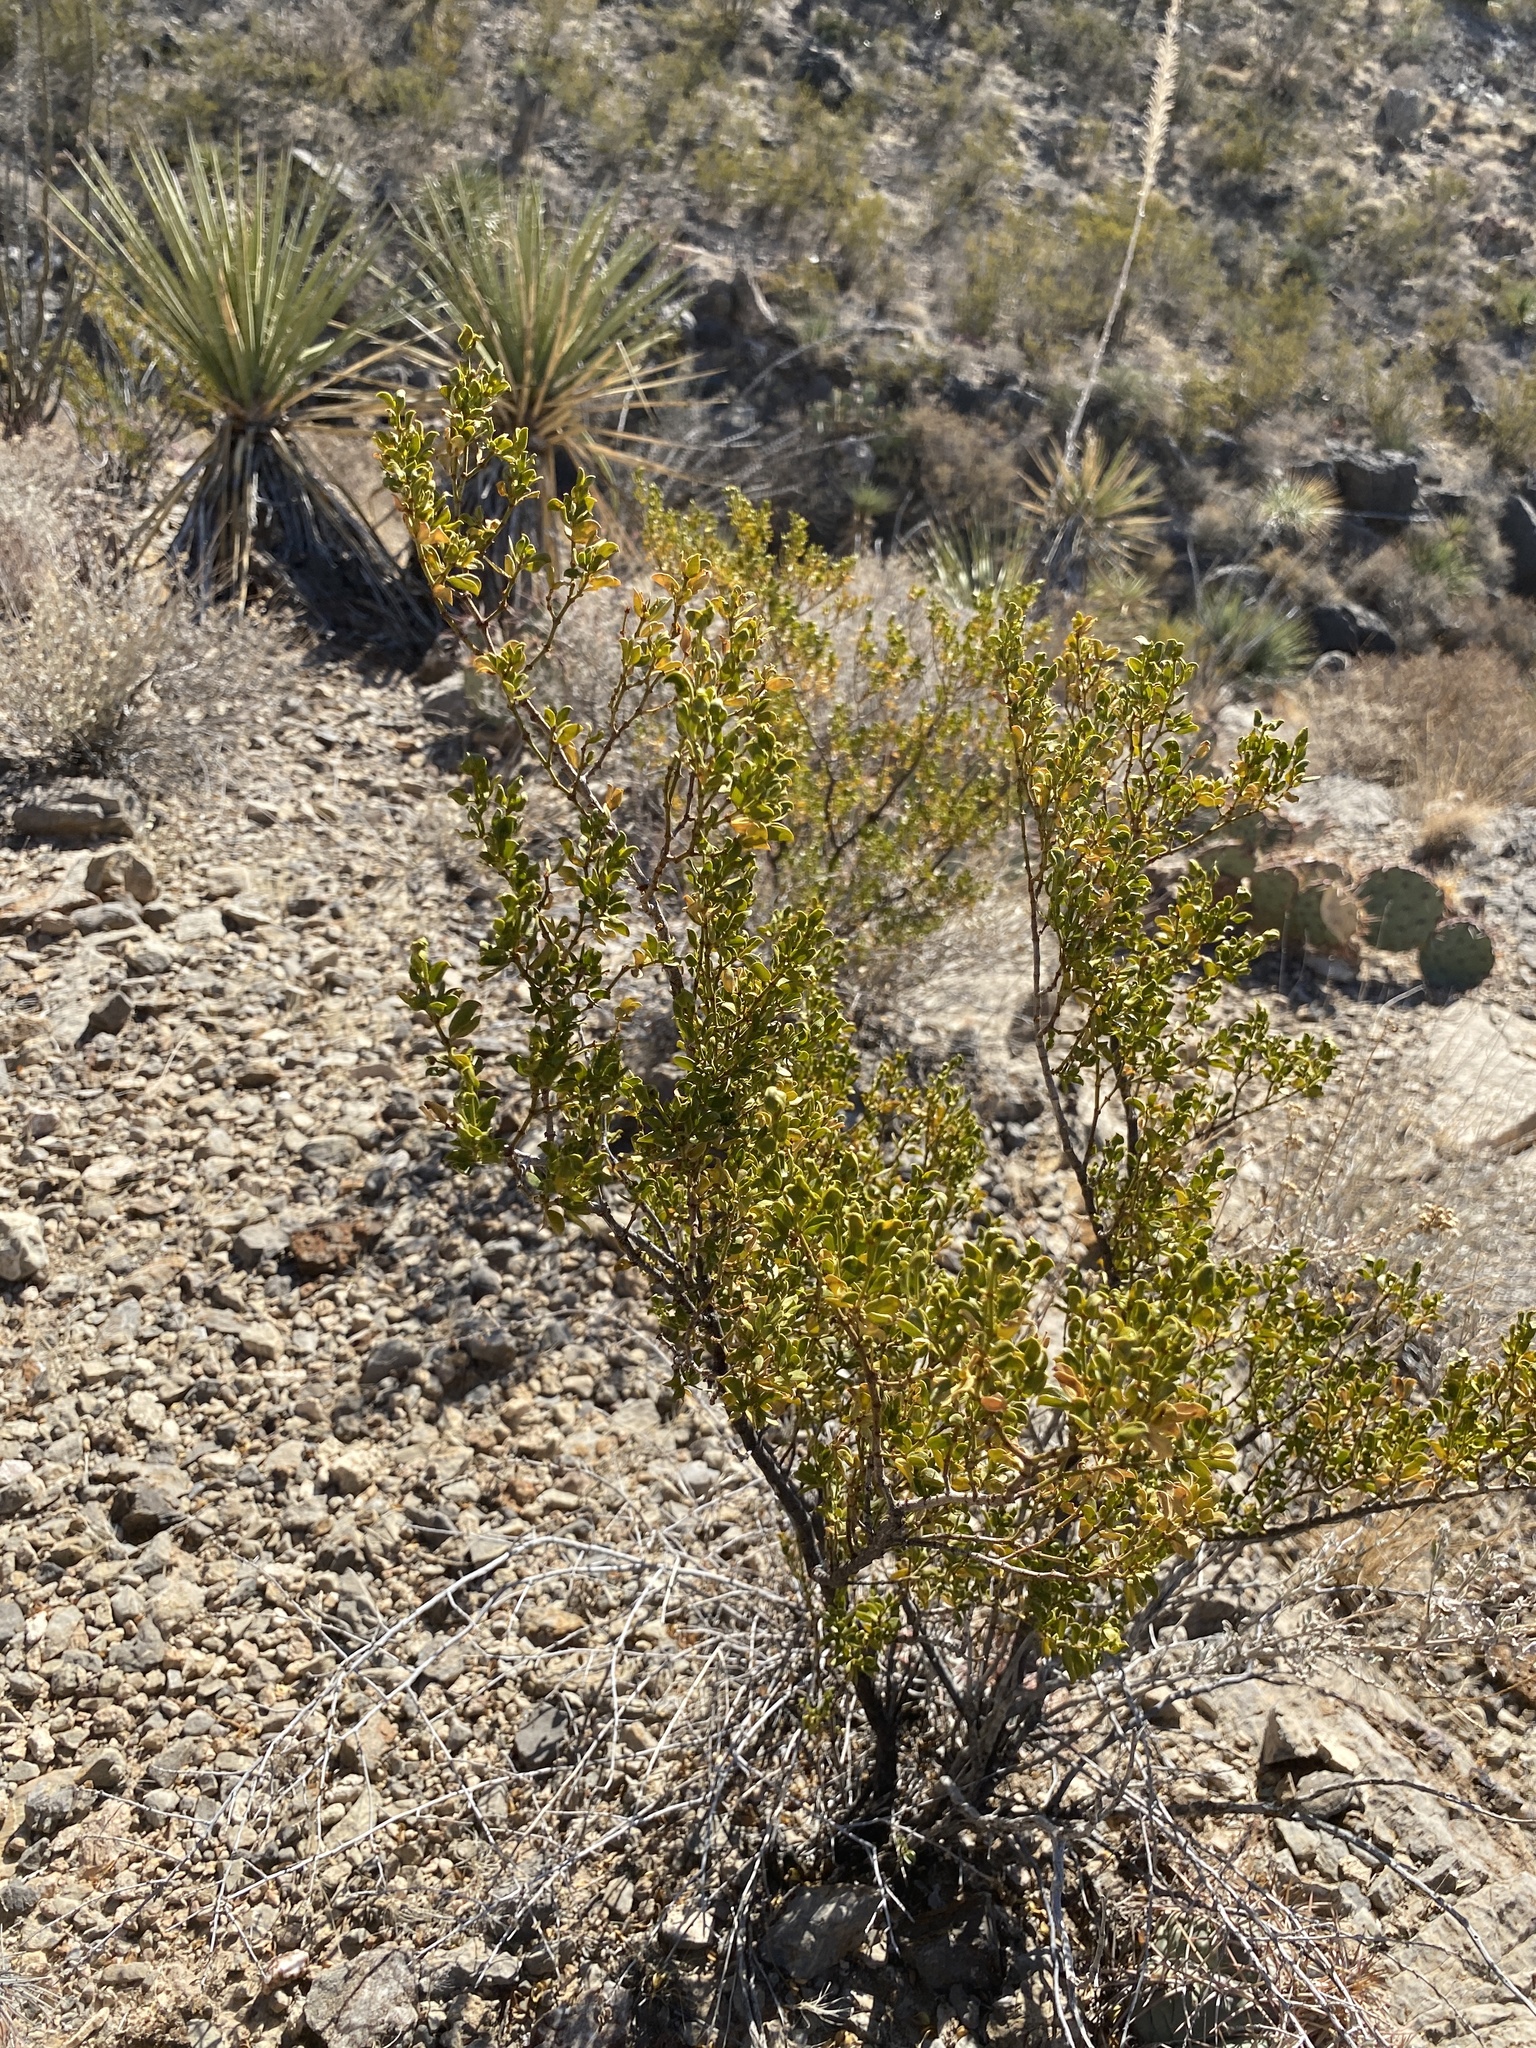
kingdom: Plantae
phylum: Tracheophyta
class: Magnoliopsida
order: Zygophyllales
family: Zygophyllaceae
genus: Larrea
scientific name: Larrea tridentata
